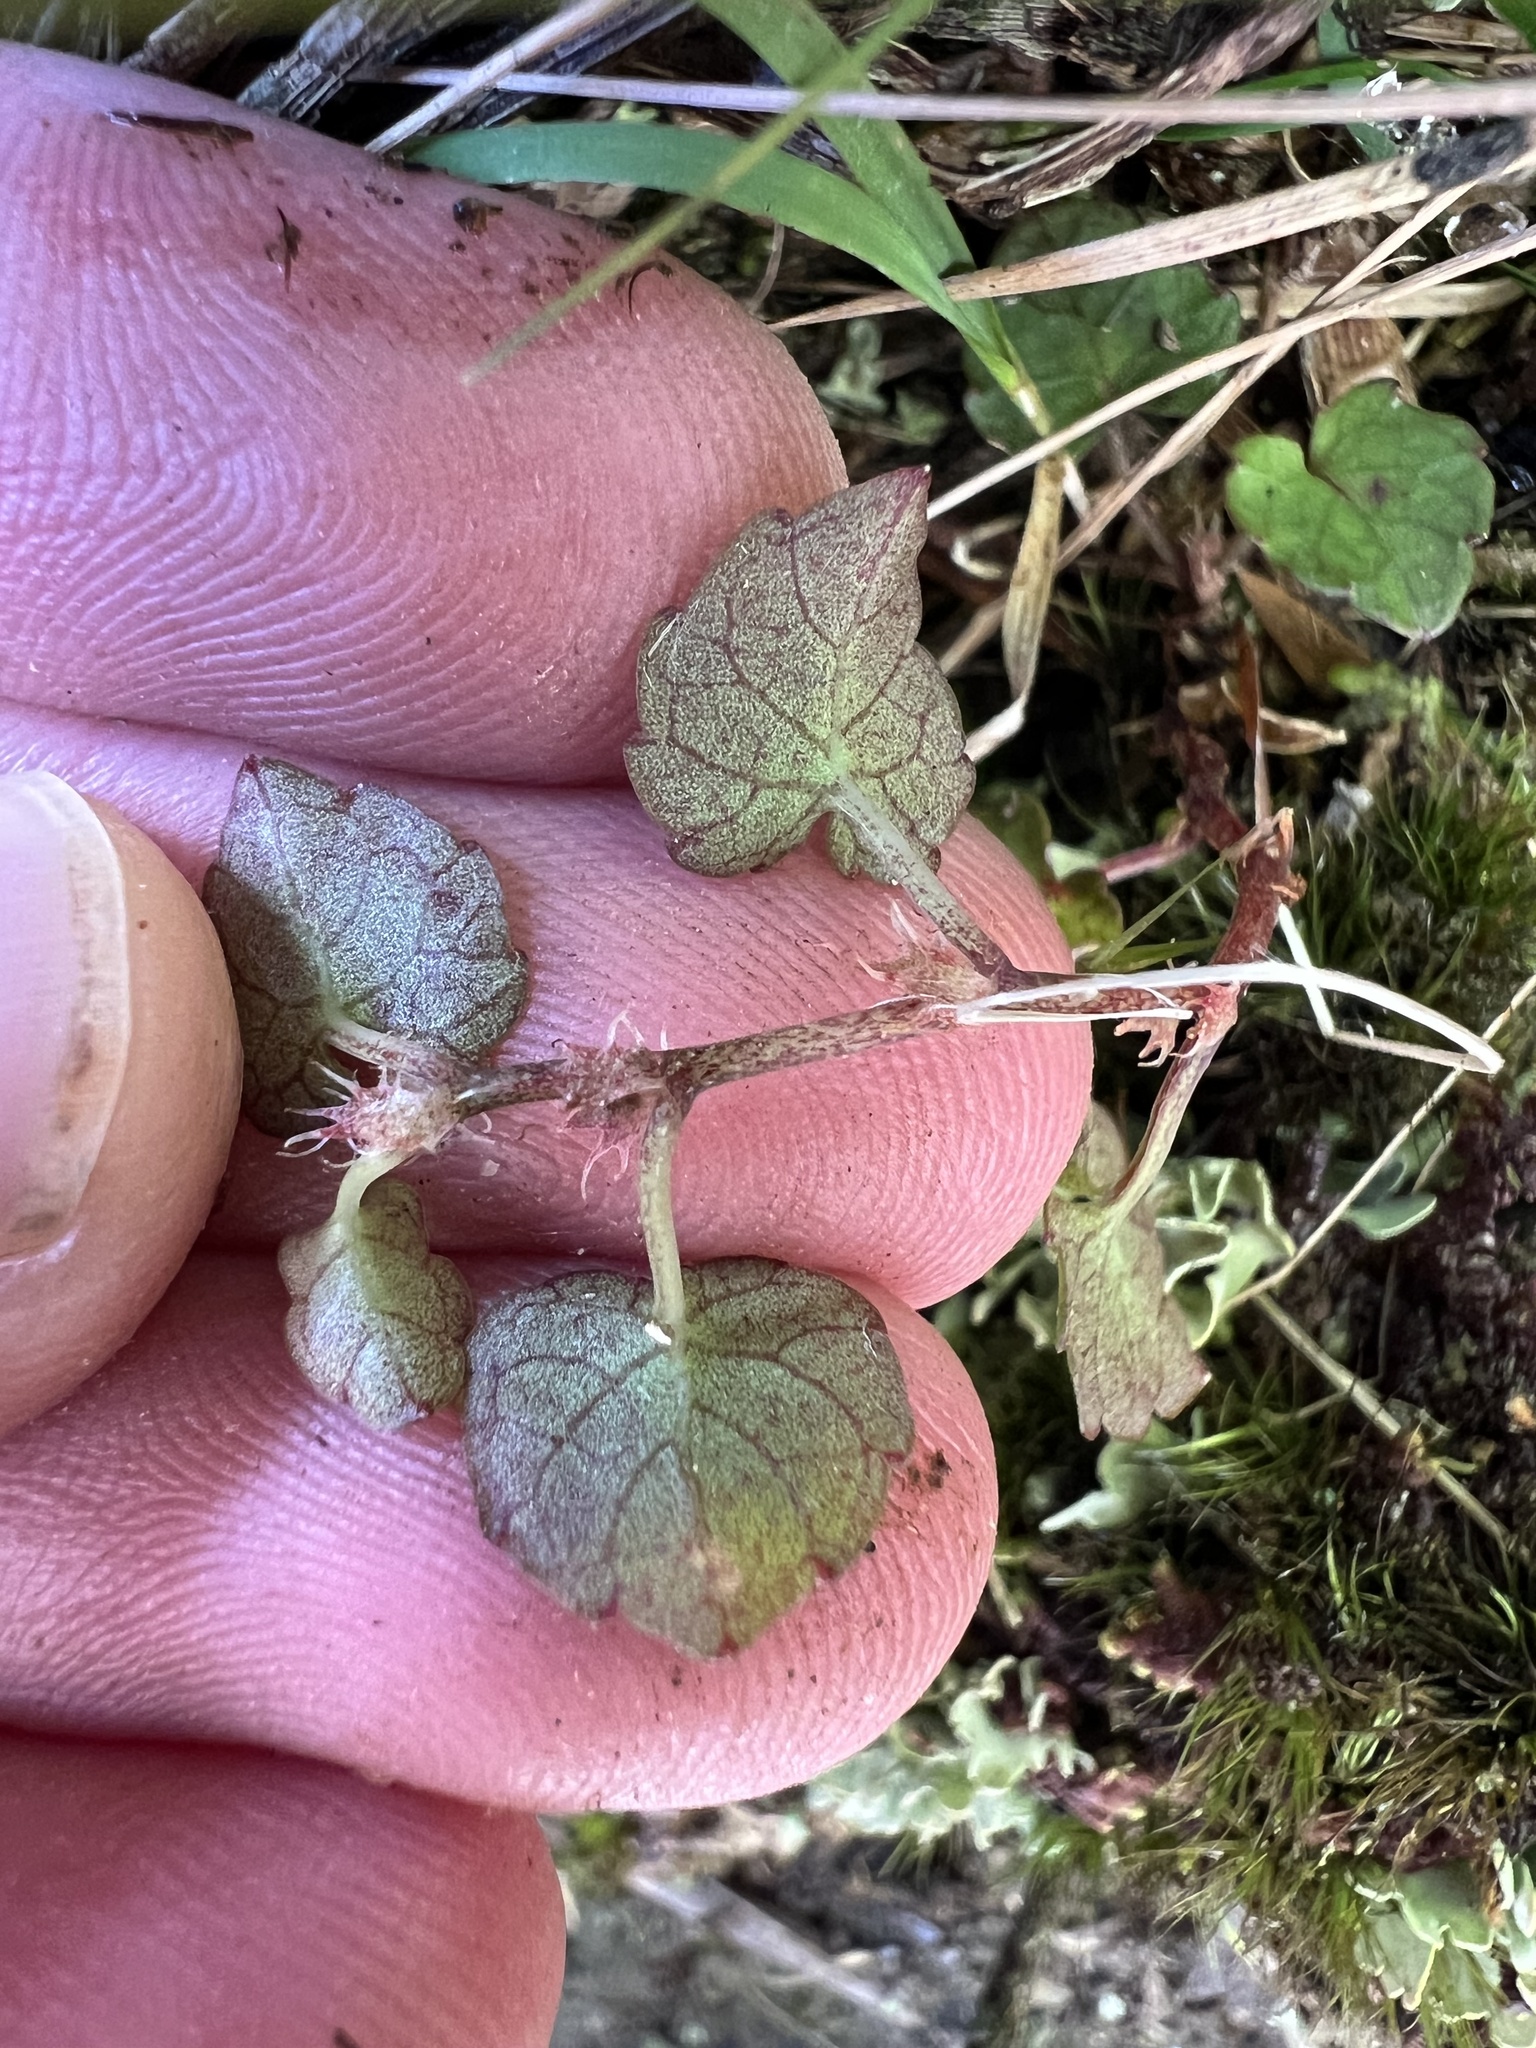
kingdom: Plantae
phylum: Tracheophyta
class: Magnoliopsida
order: Malpighiales
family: Violaceae
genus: Viola
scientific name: Viola filicaulis
